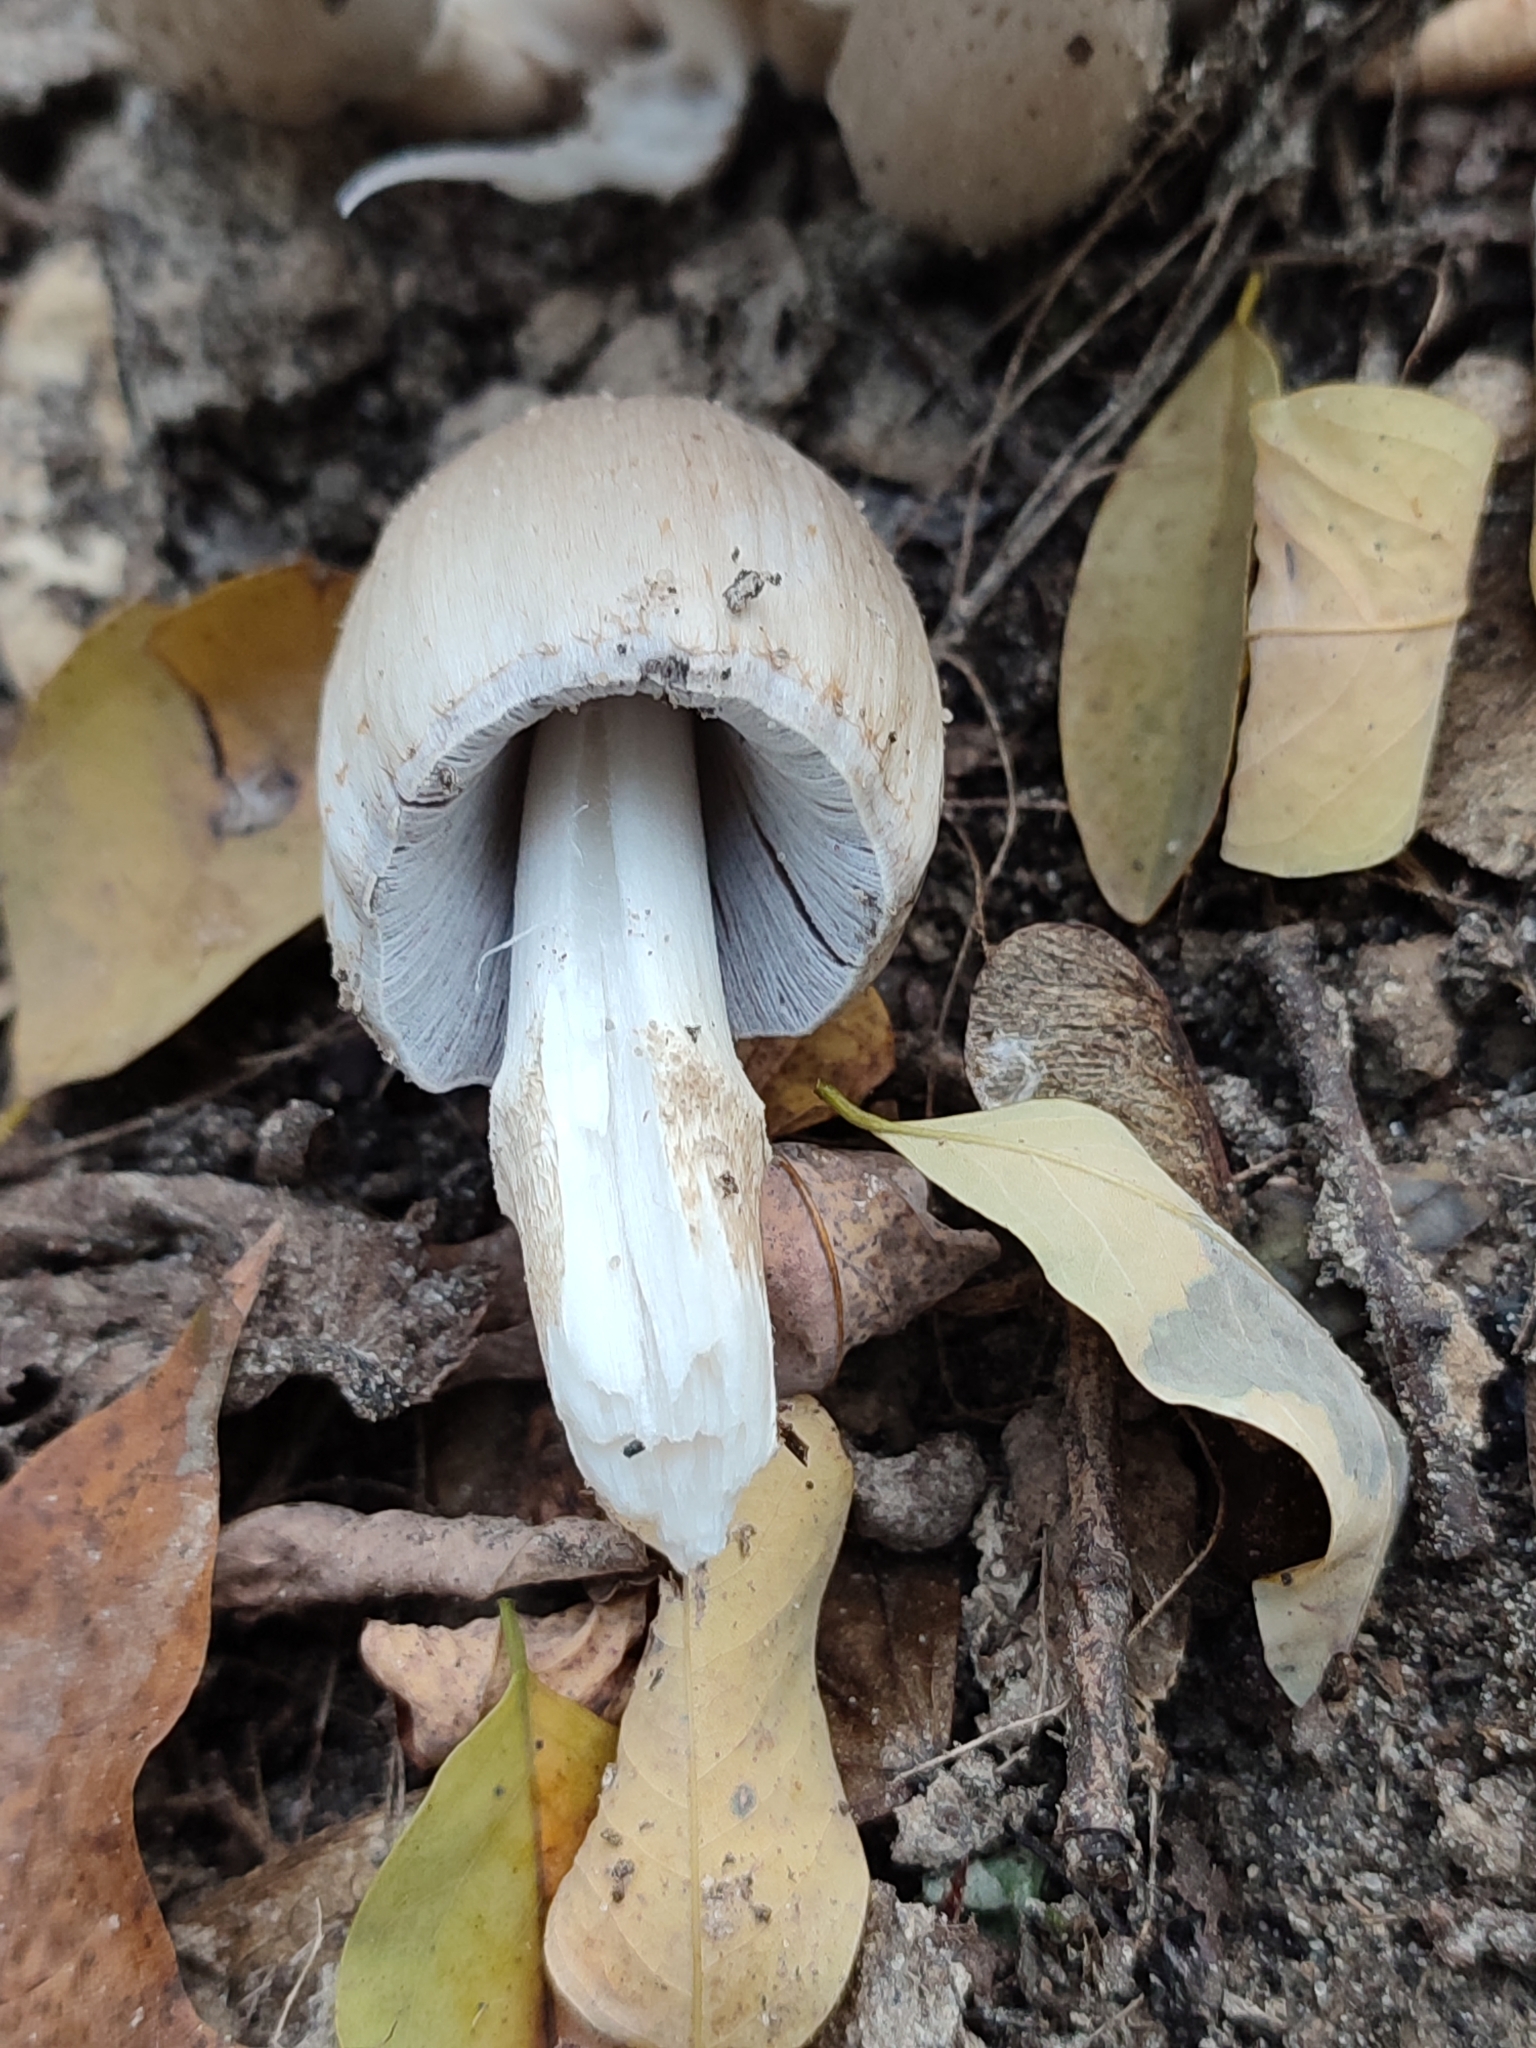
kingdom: Fungi
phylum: Basidiomycota
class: Agaricomycetes
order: Agaricales
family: Psathyrellaceae
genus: Coprinopsis
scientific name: Coprinopsis atramentaria
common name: Common ink-cap
